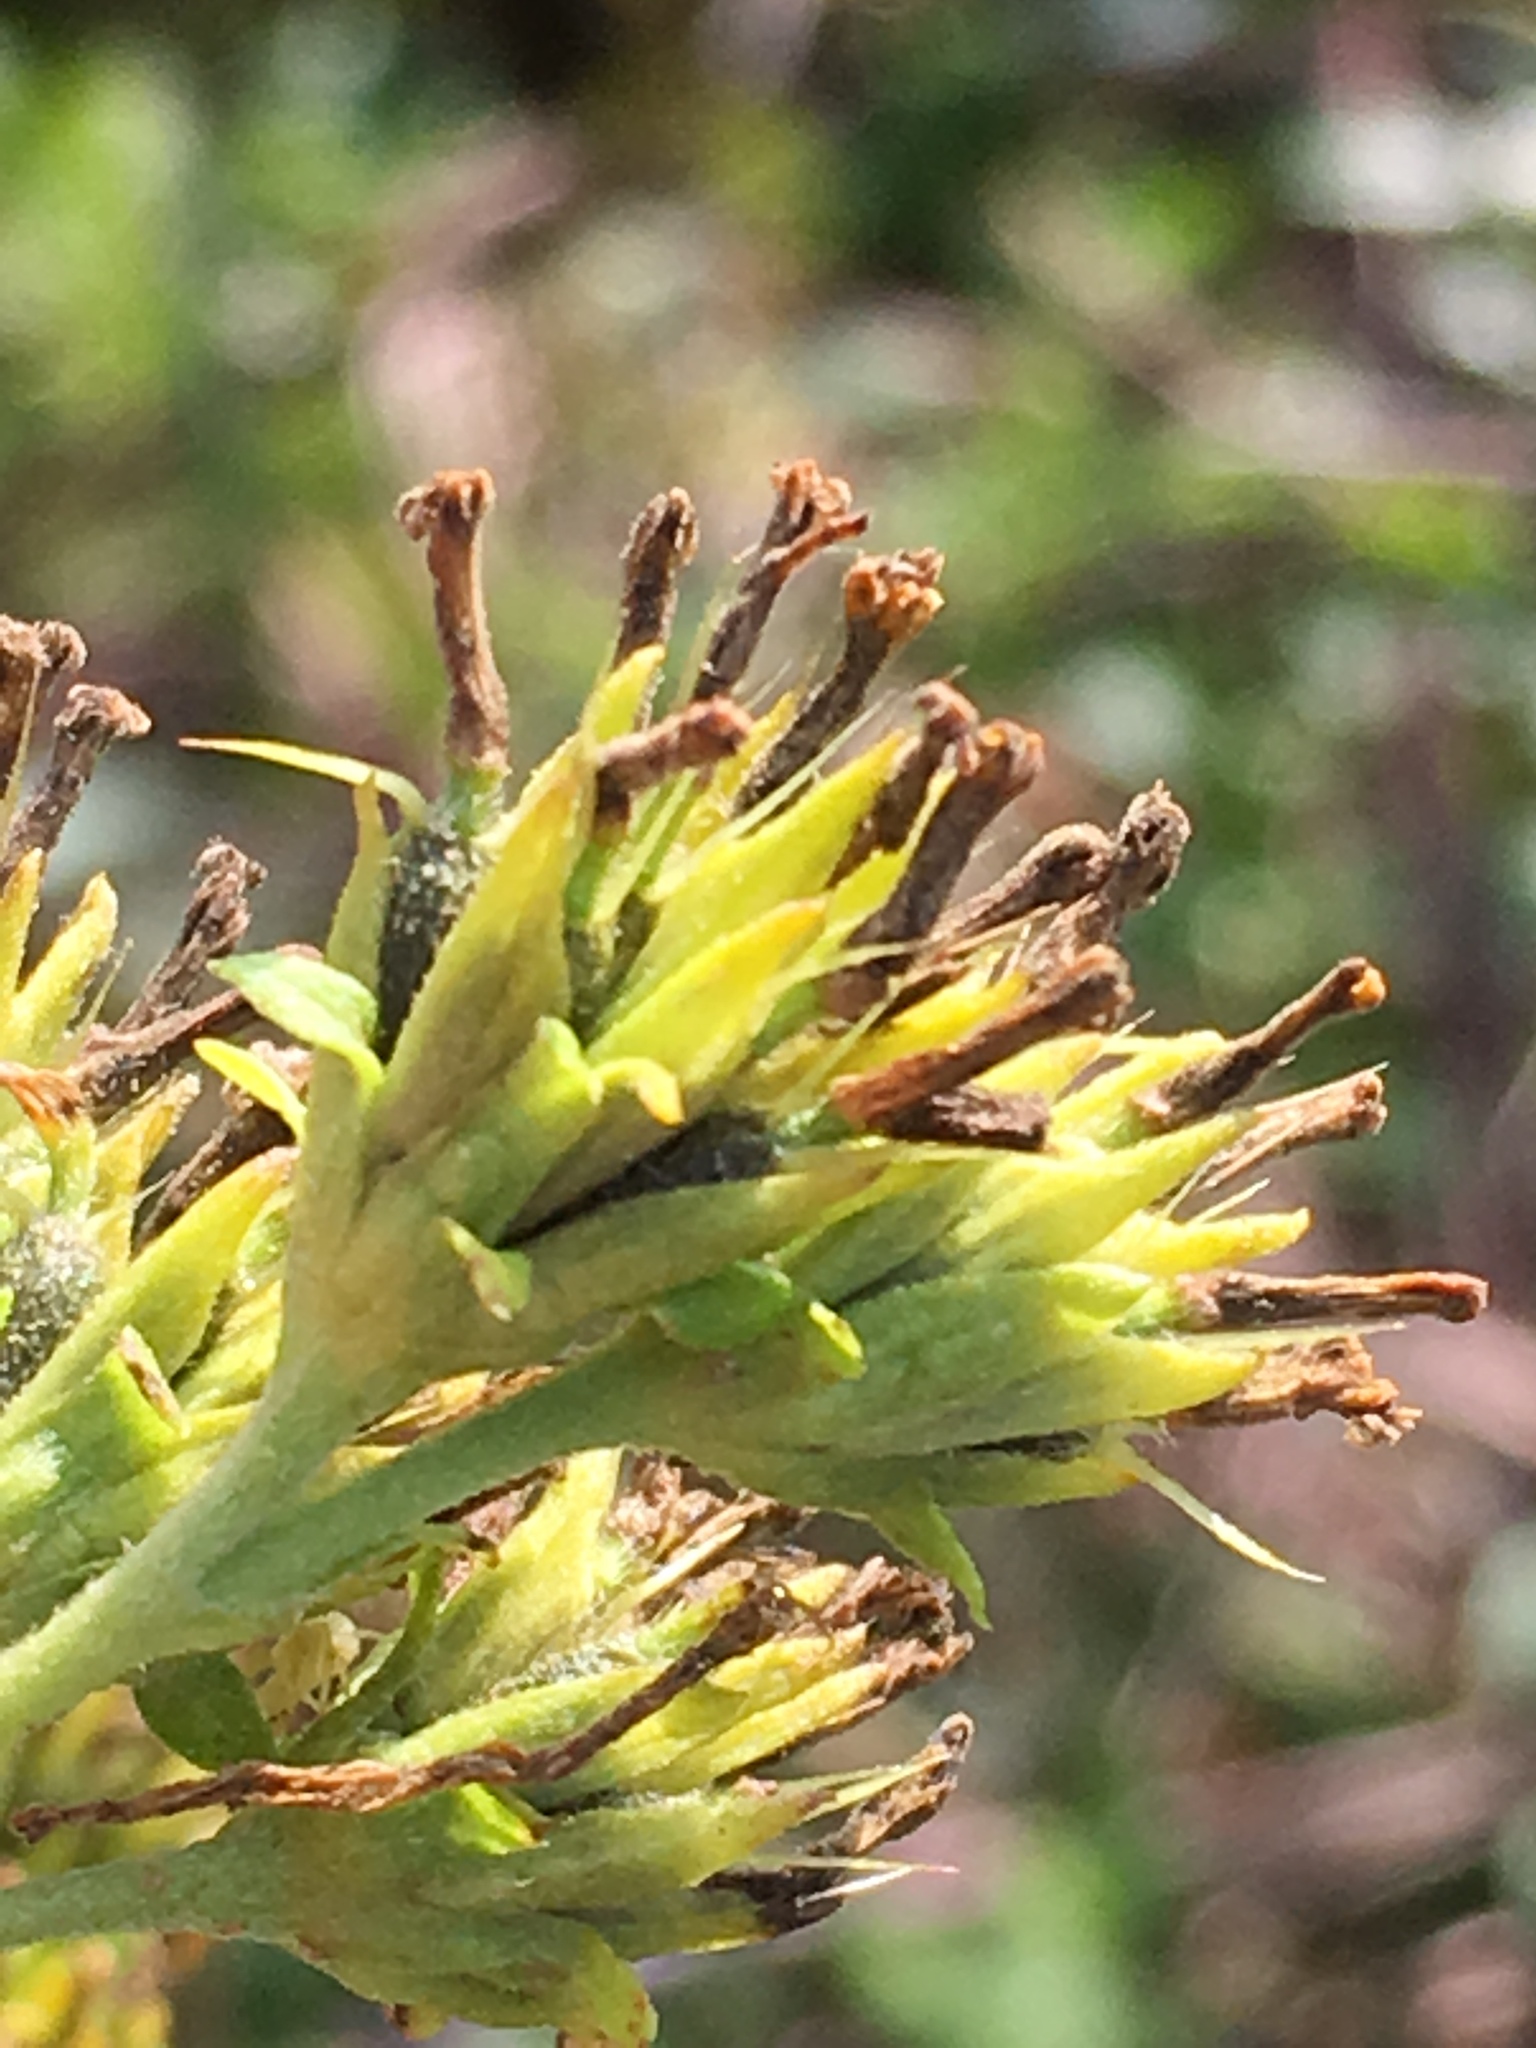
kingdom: Plantae
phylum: Tracheophyta
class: Magnoliopsida
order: Asterales
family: Asteraceae
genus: Verbesina
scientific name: Verbesina occidentalis
